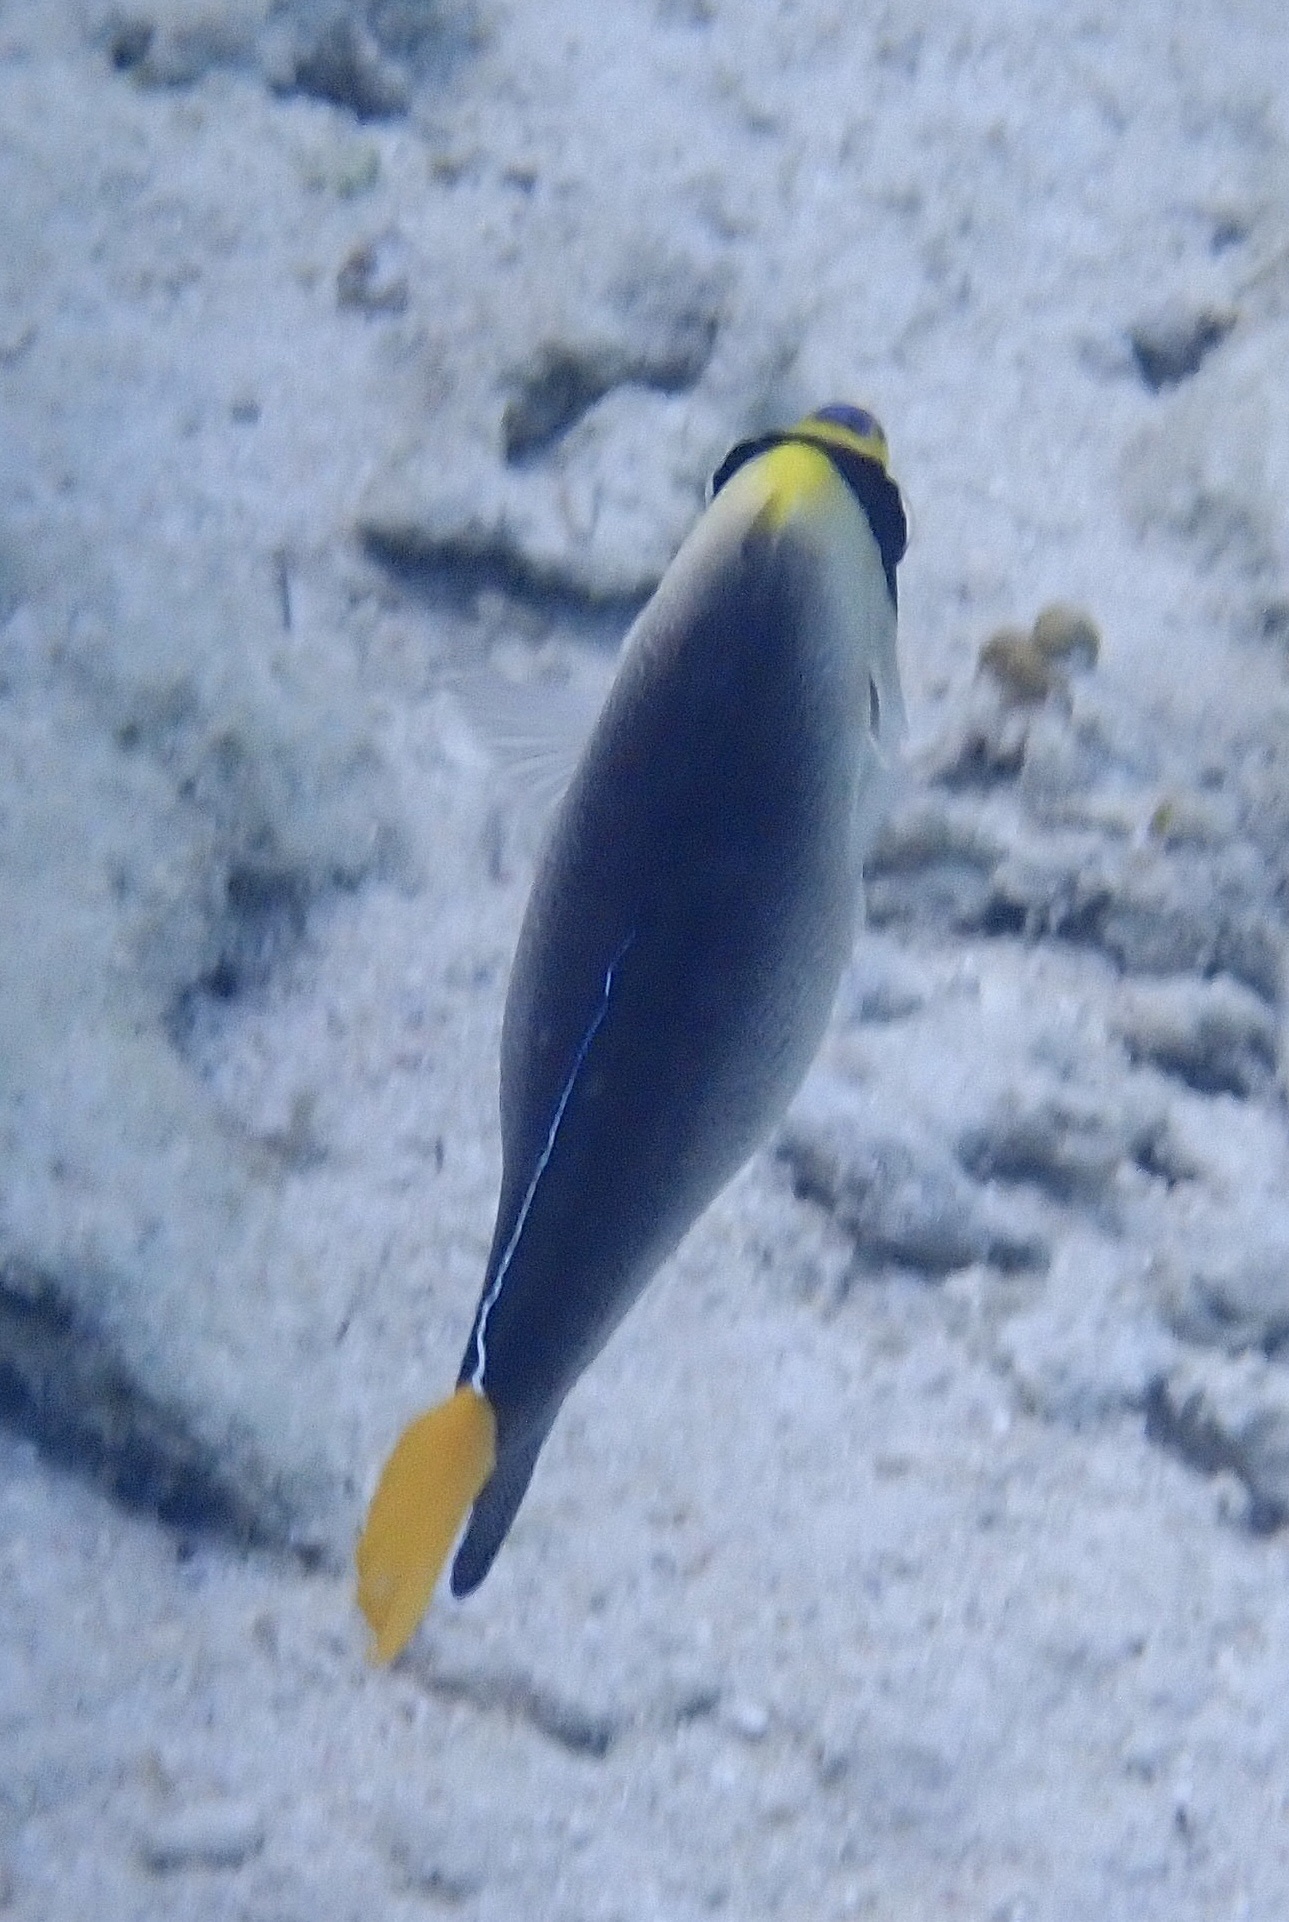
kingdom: Animalia
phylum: Chordata
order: Perciformes
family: Pomacanthidae
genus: Chaetodontoplus
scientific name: Chaetodontoplus mesoleucus
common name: Vermiculated angelfish
